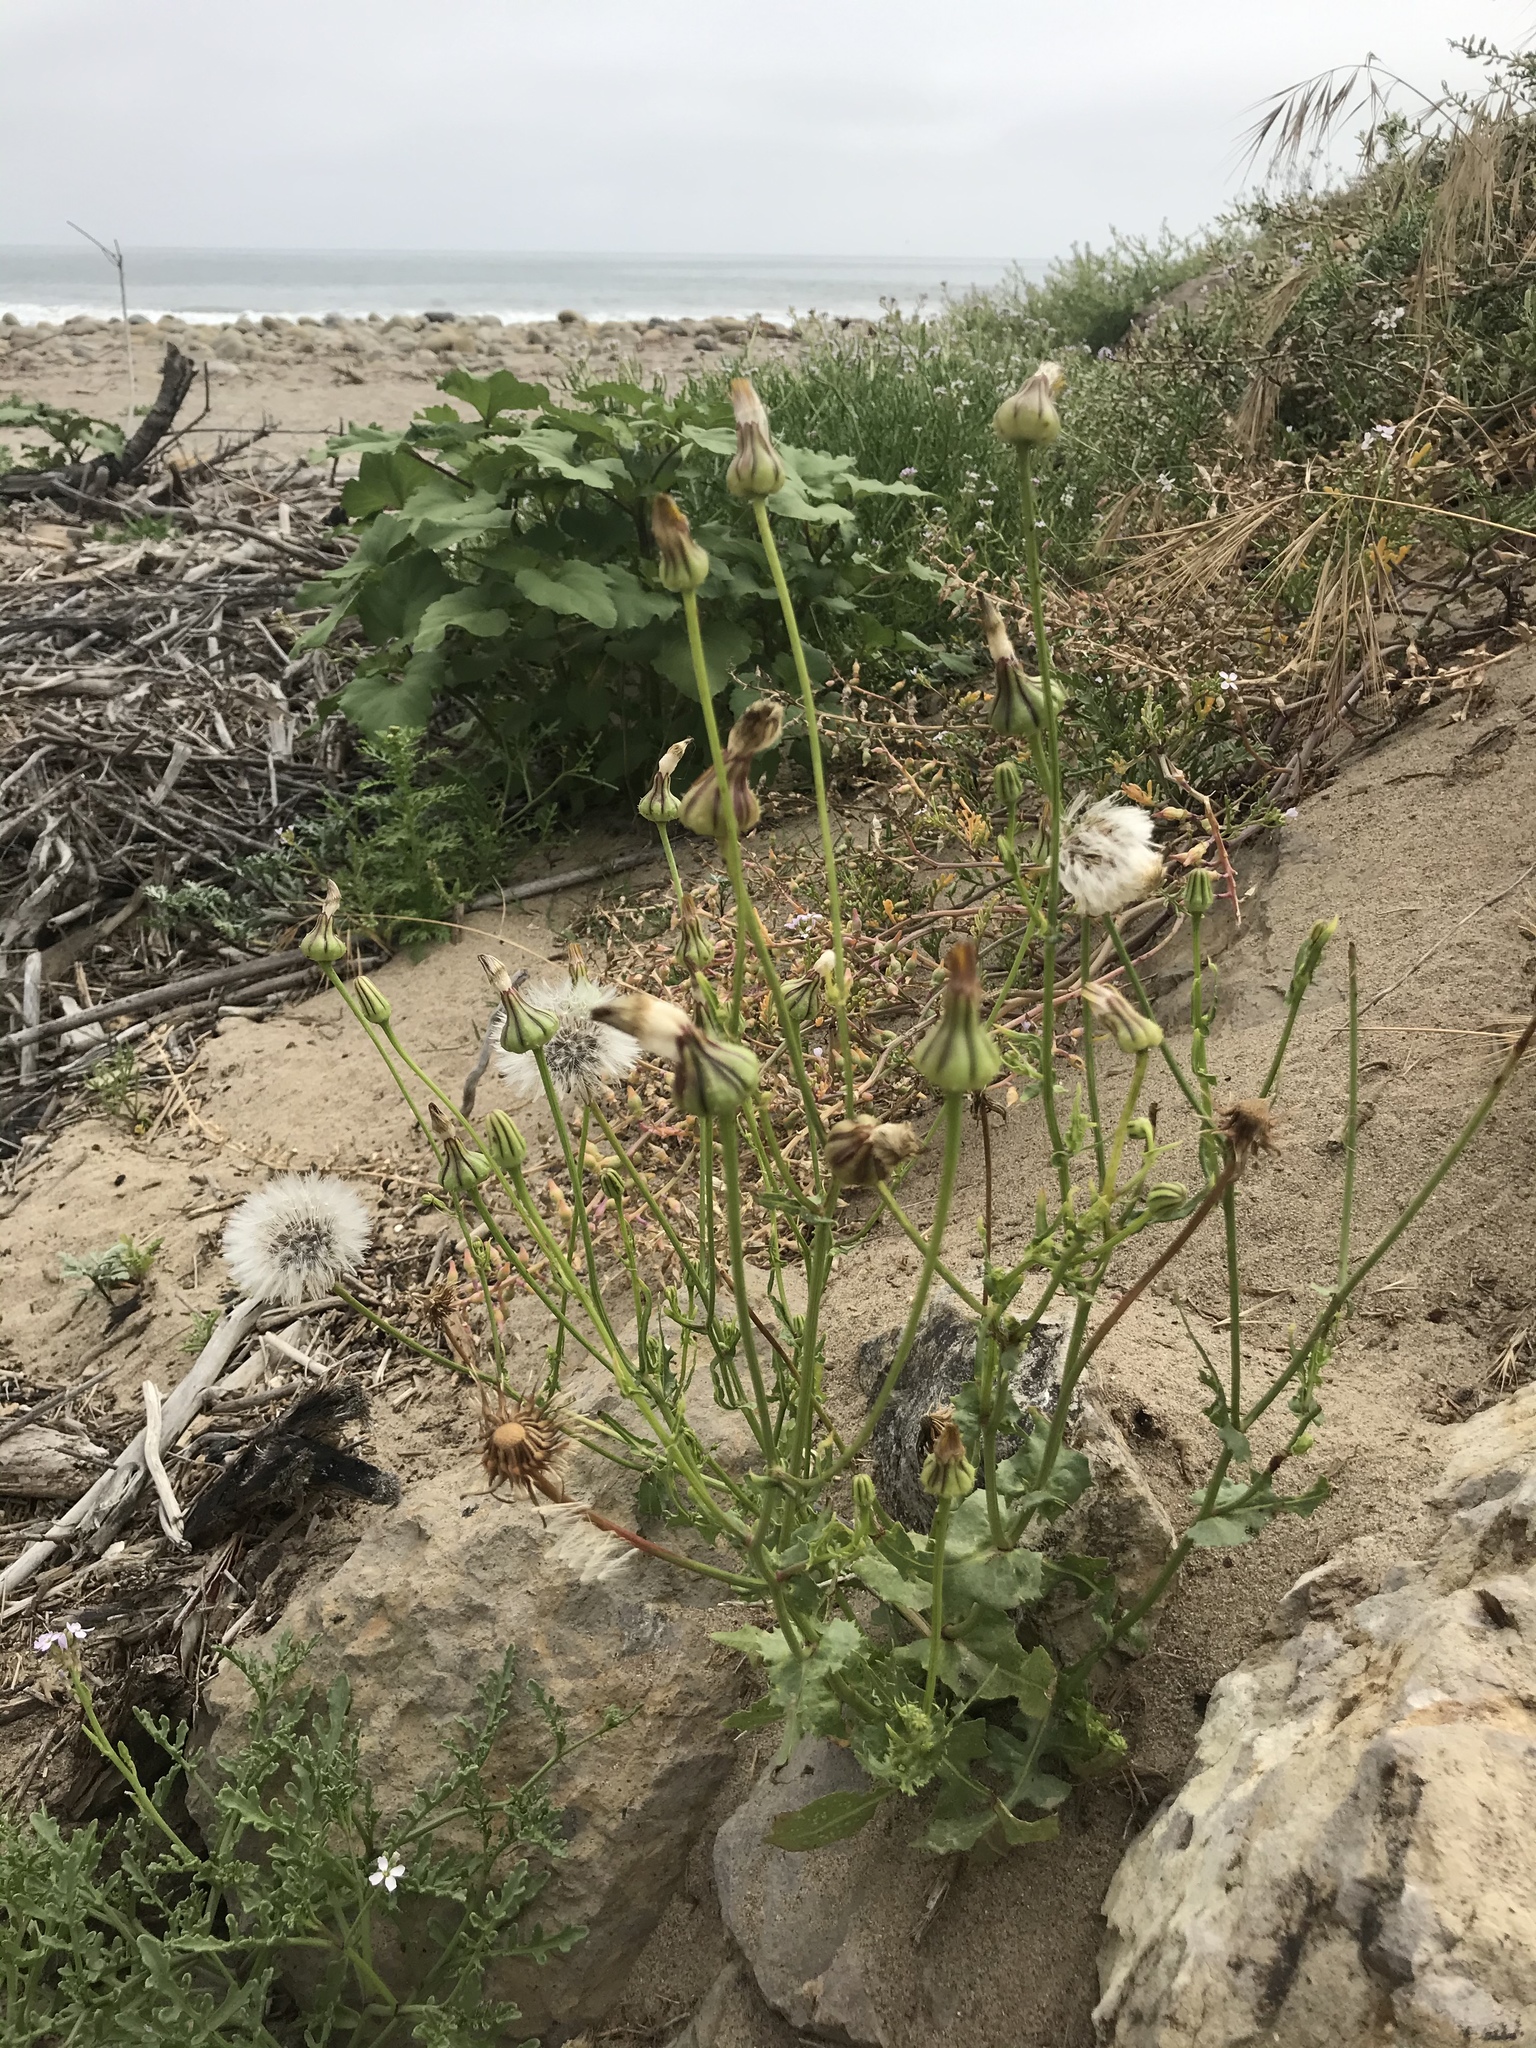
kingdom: Plantae
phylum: Tracheophyta
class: Magnoliopsida
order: Asterales
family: Asteraceae
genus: Urospermum
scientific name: Urospermum picroides
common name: False hawkbit
